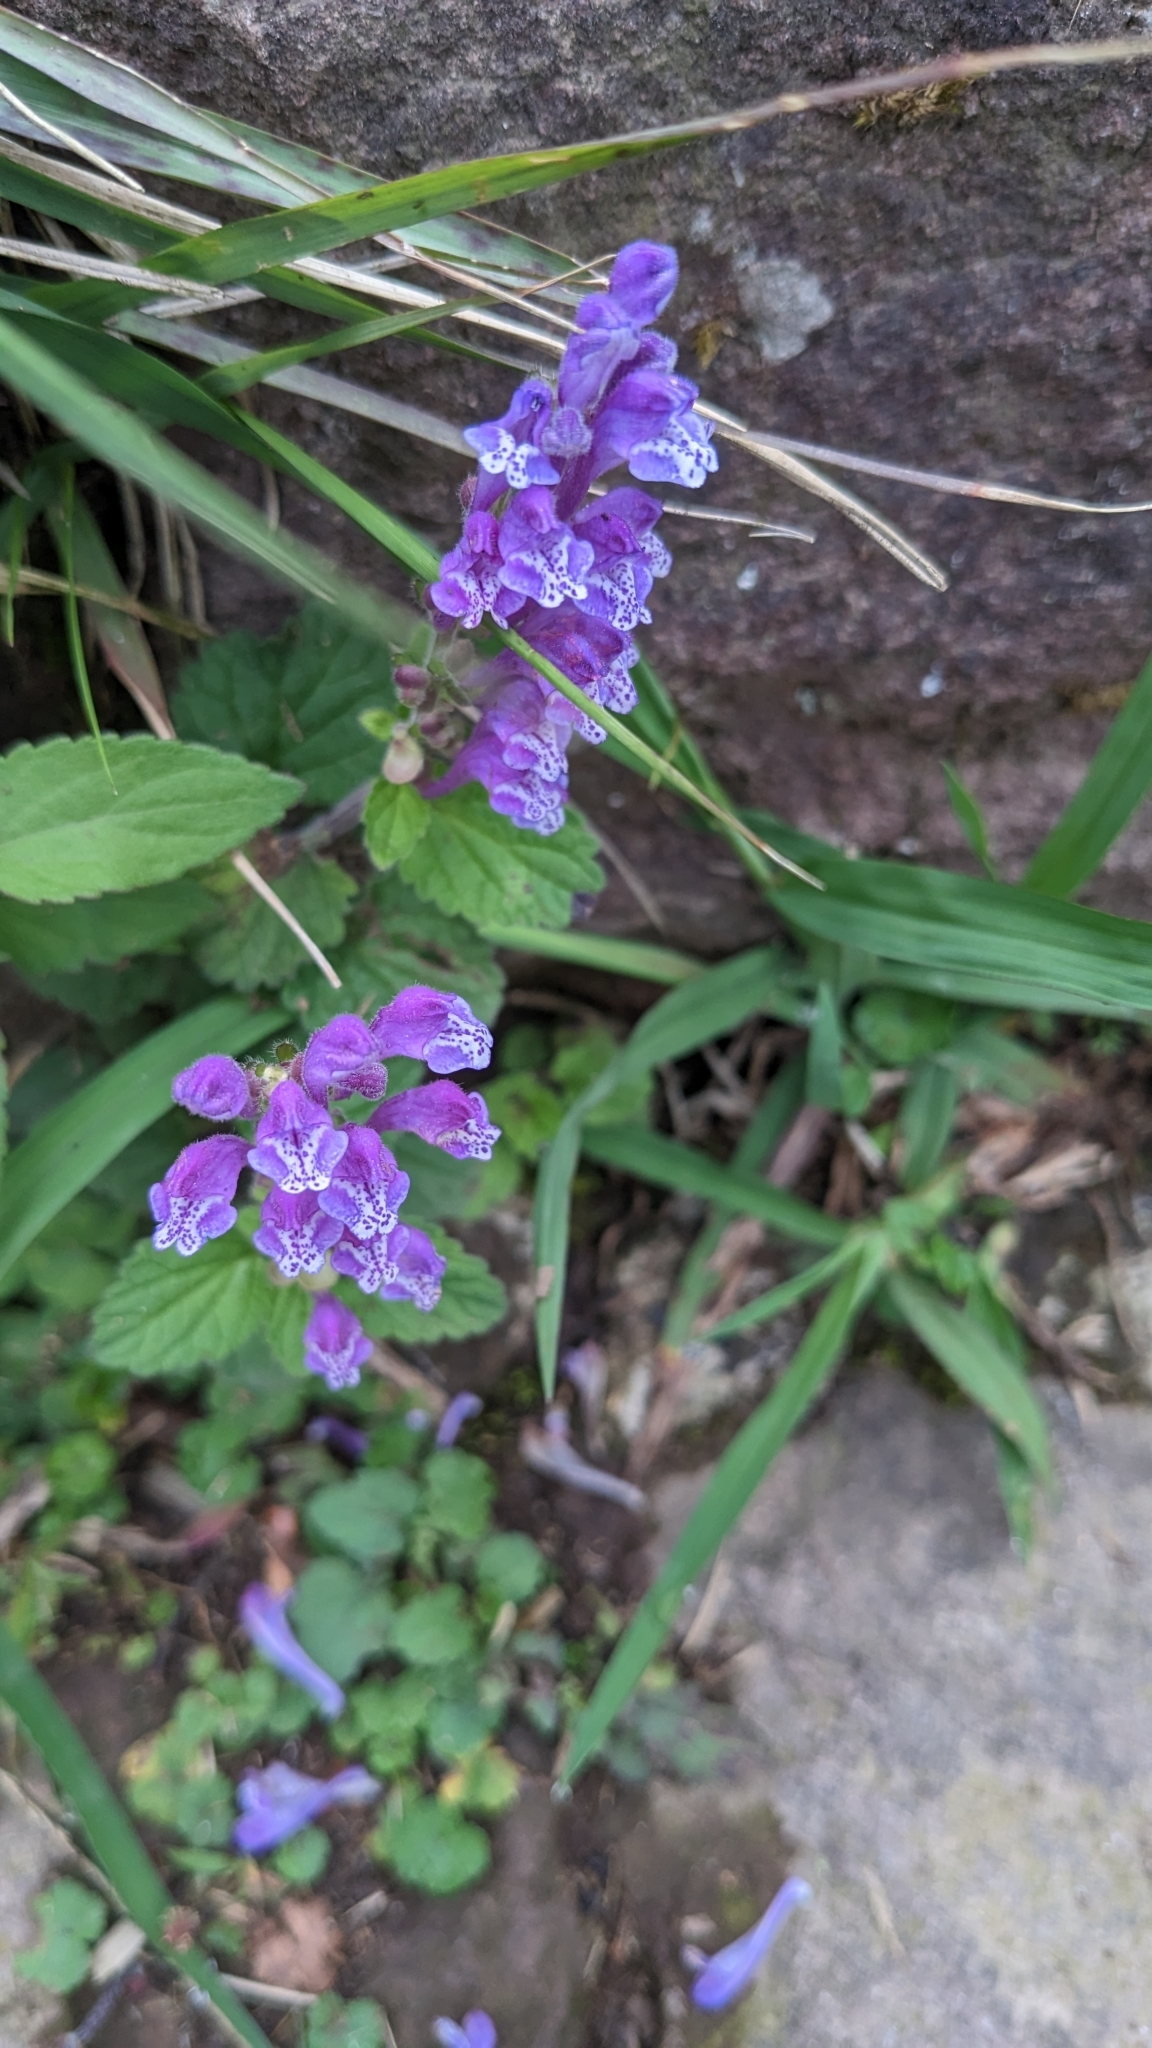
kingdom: Plantae
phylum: Tracheophyta
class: Magnoliopsida
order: Lamiales
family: Lamiaceae
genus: Scutellaria
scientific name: Scutellaria indica
